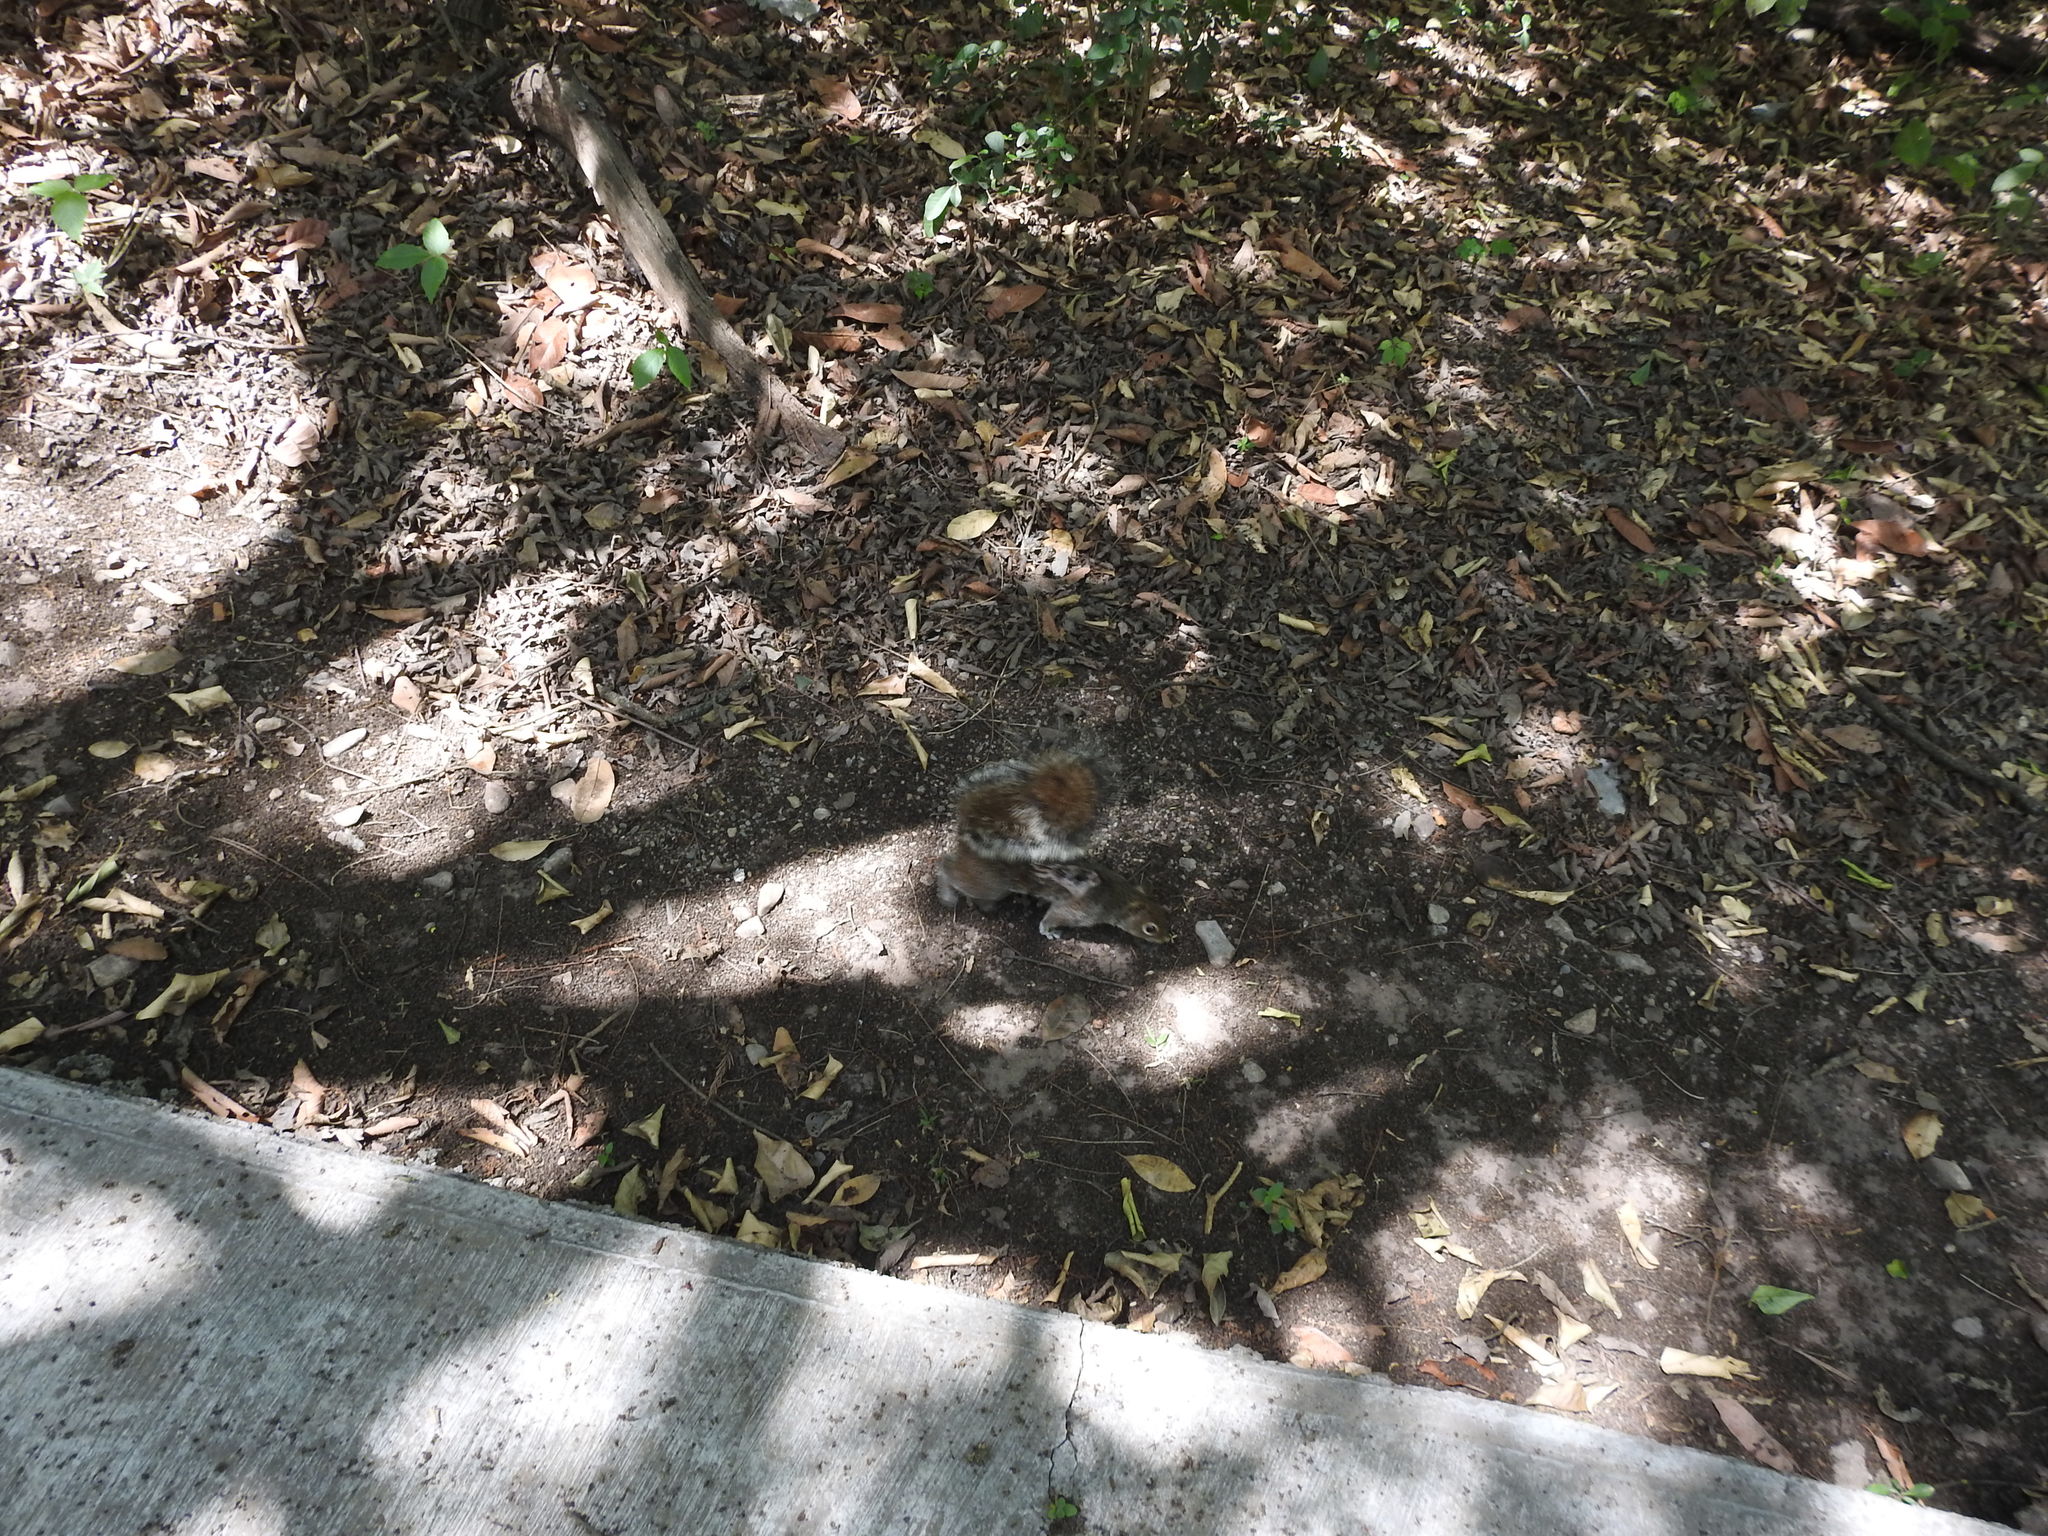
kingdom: Animalia
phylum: Chordata
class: Mammalia
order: Rodentia
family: Sciuridae
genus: Sciurus
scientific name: Sciurus alleni
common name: Allen's squirrel
